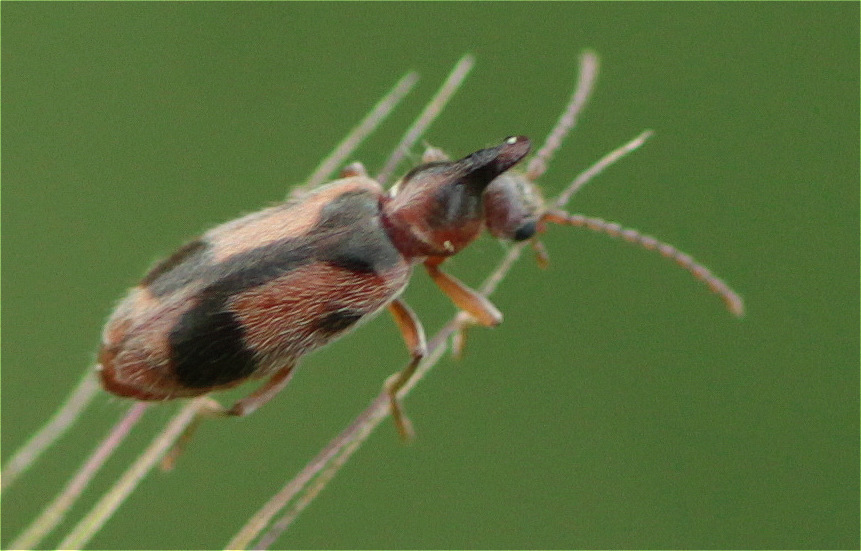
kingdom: Animalia
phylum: Arthropoda
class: Insecta
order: Coleoptera
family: Anthicidae
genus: Notoxus
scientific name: Notoxus monoceros
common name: Monoceros beetle
